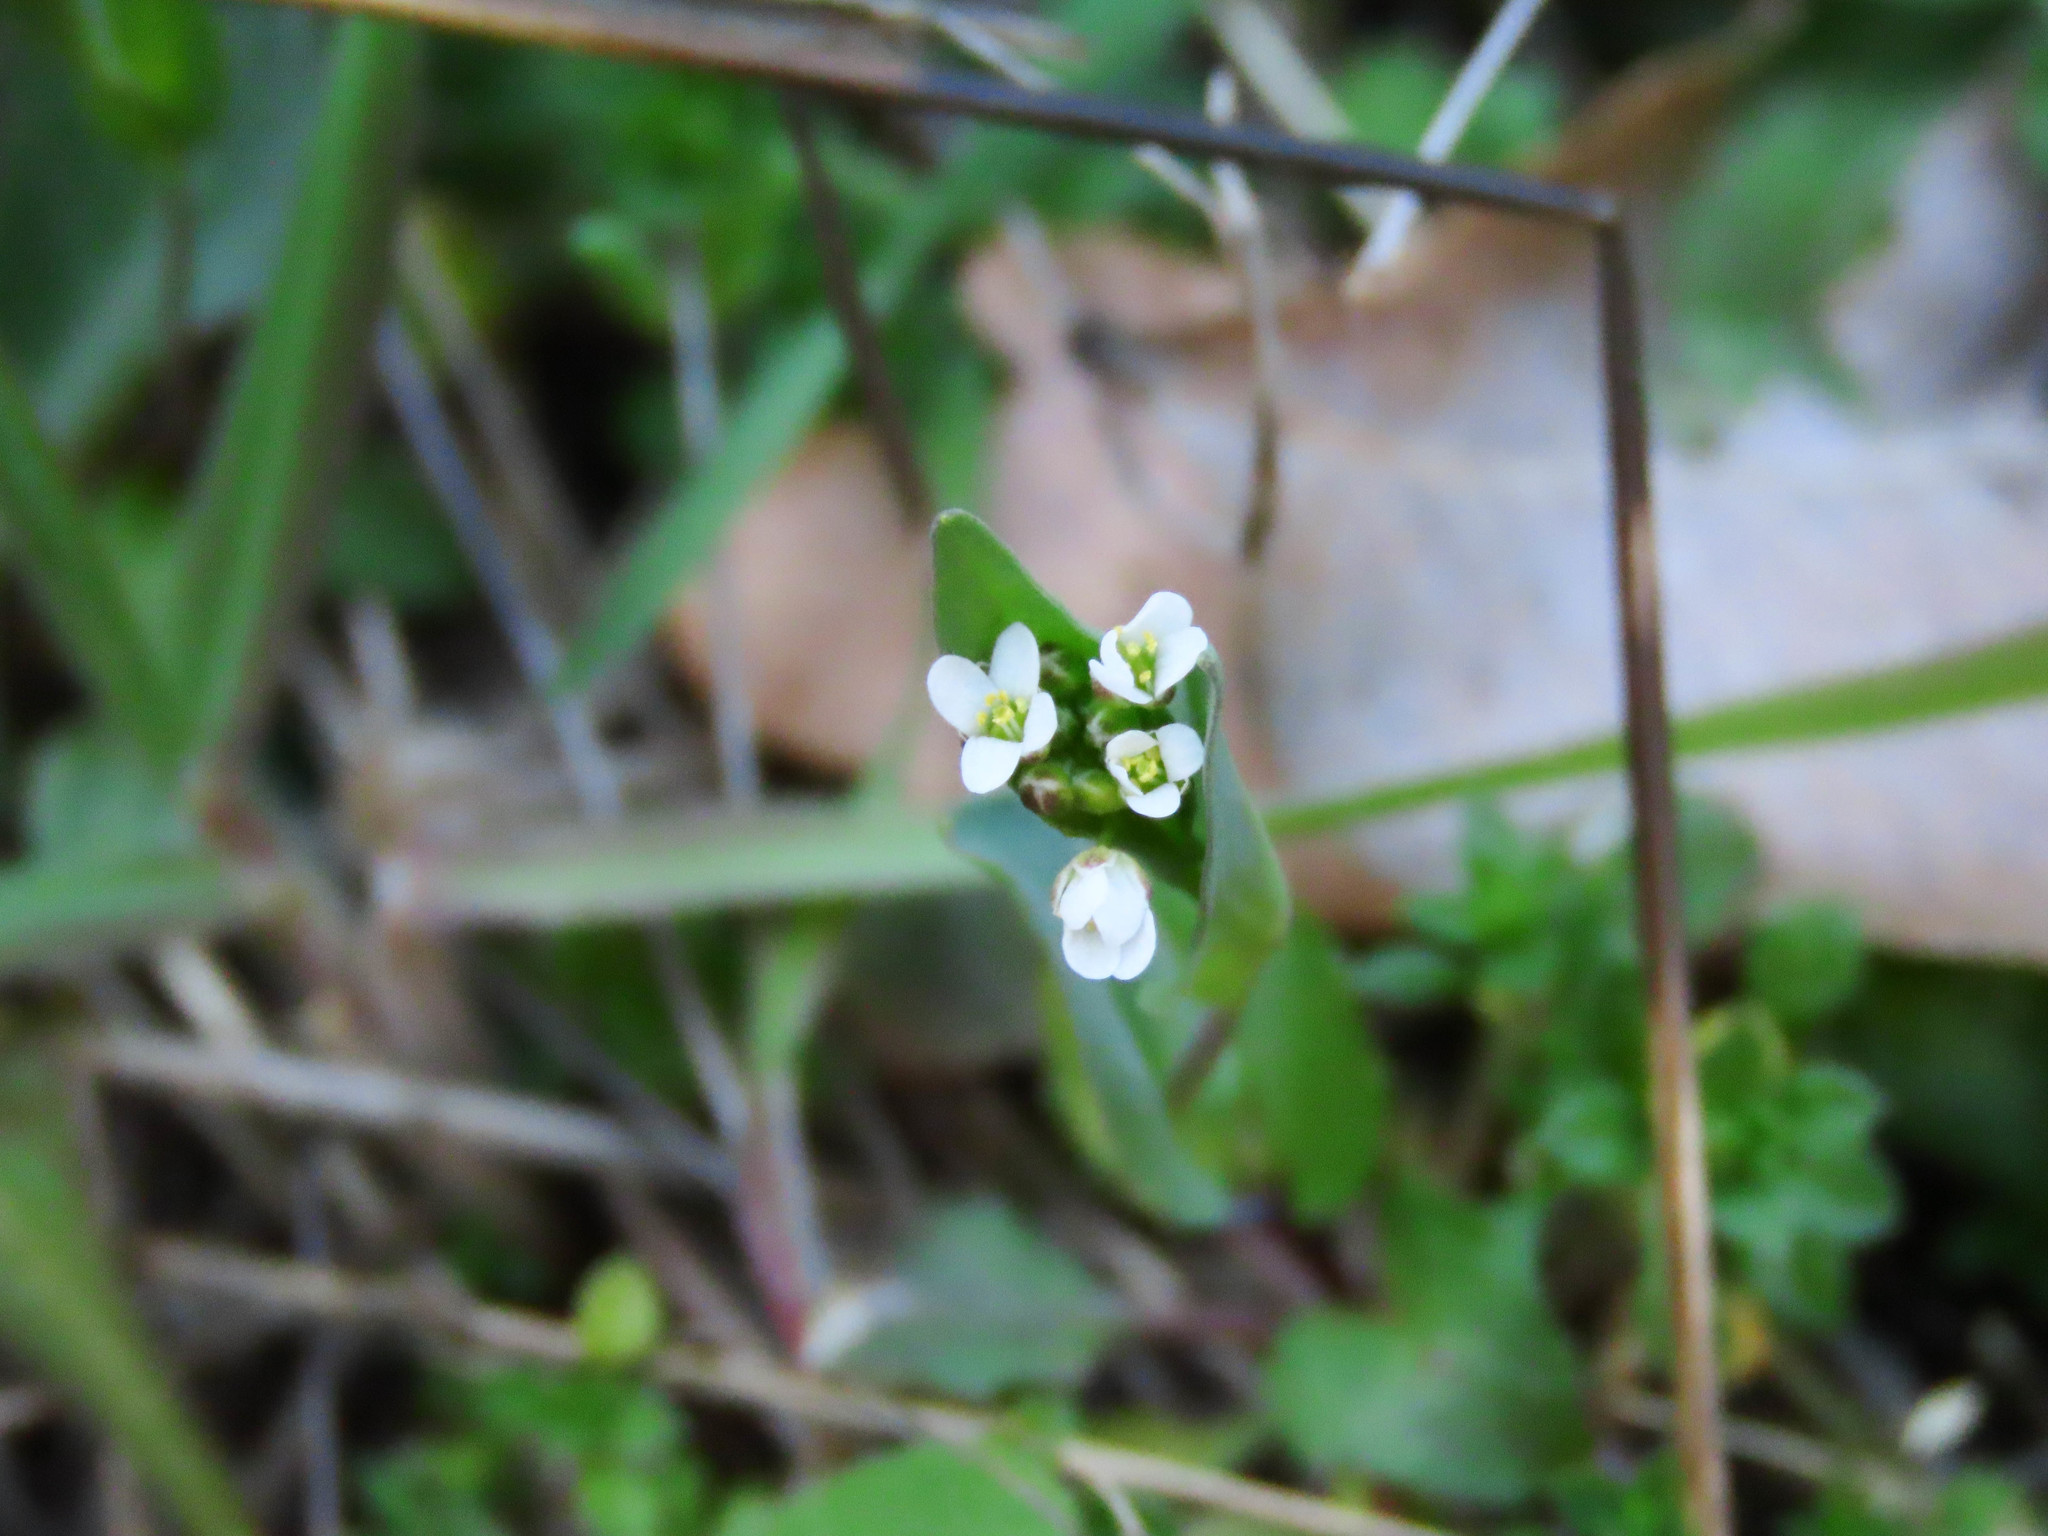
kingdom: Plantae
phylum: Tracheophyta
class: Magnoliopsida
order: Brassicales
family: Brassicaceae
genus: Noccaea
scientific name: Noccaea perfoliata
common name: Perfoliate pennycress
